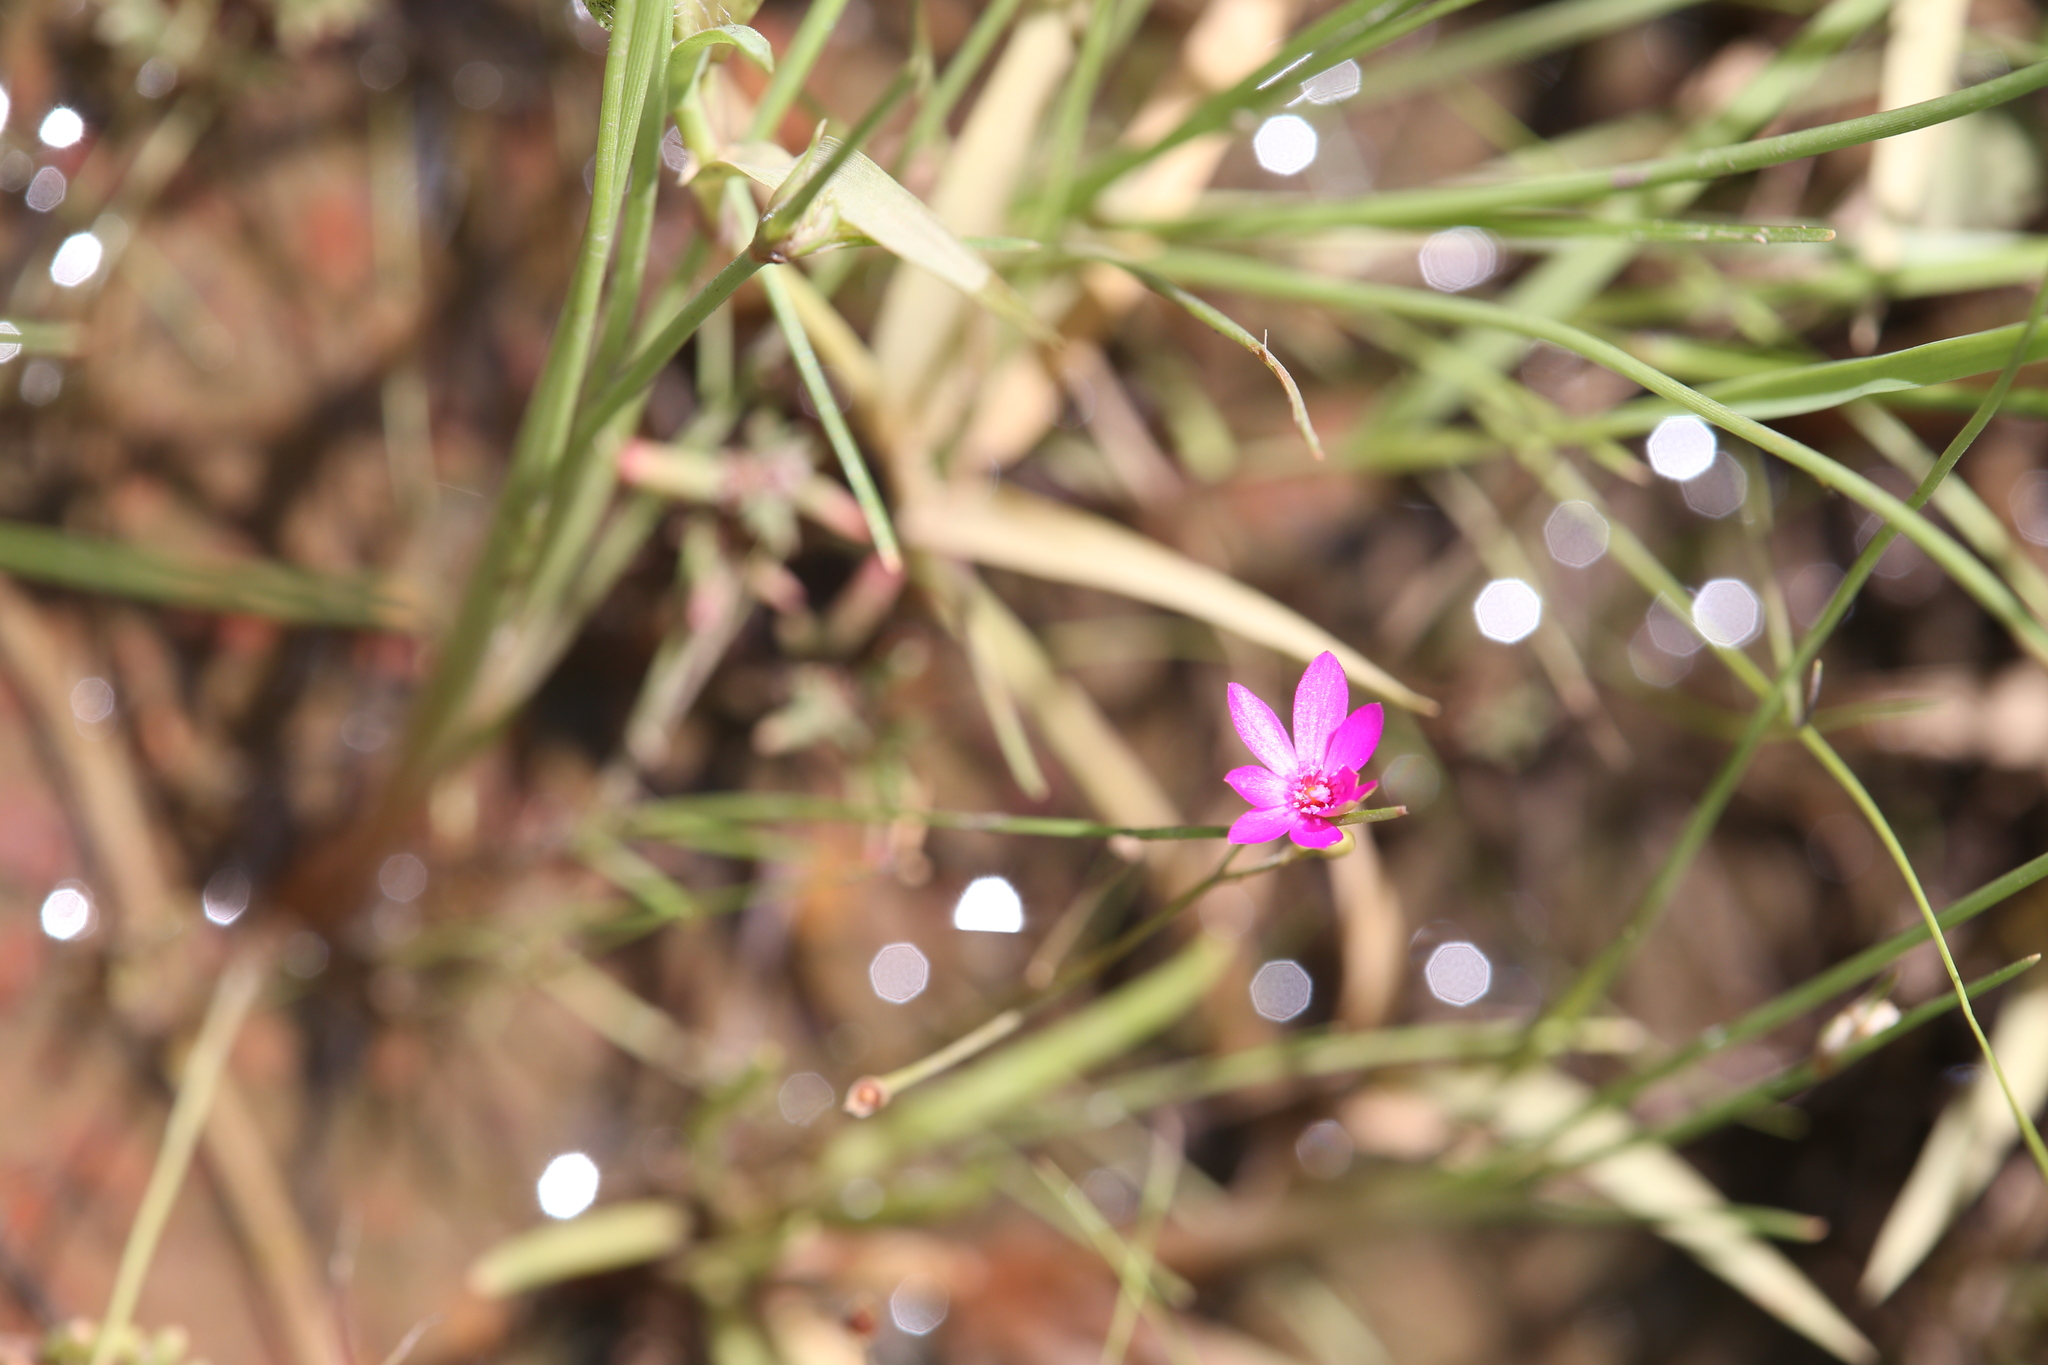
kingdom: Plantae
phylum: Tracheophyta
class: Magnoliopsida
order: Caryophyllales
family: Montiaceae
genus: Rumicastrum
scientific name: Rumicastrum strophiolatum
